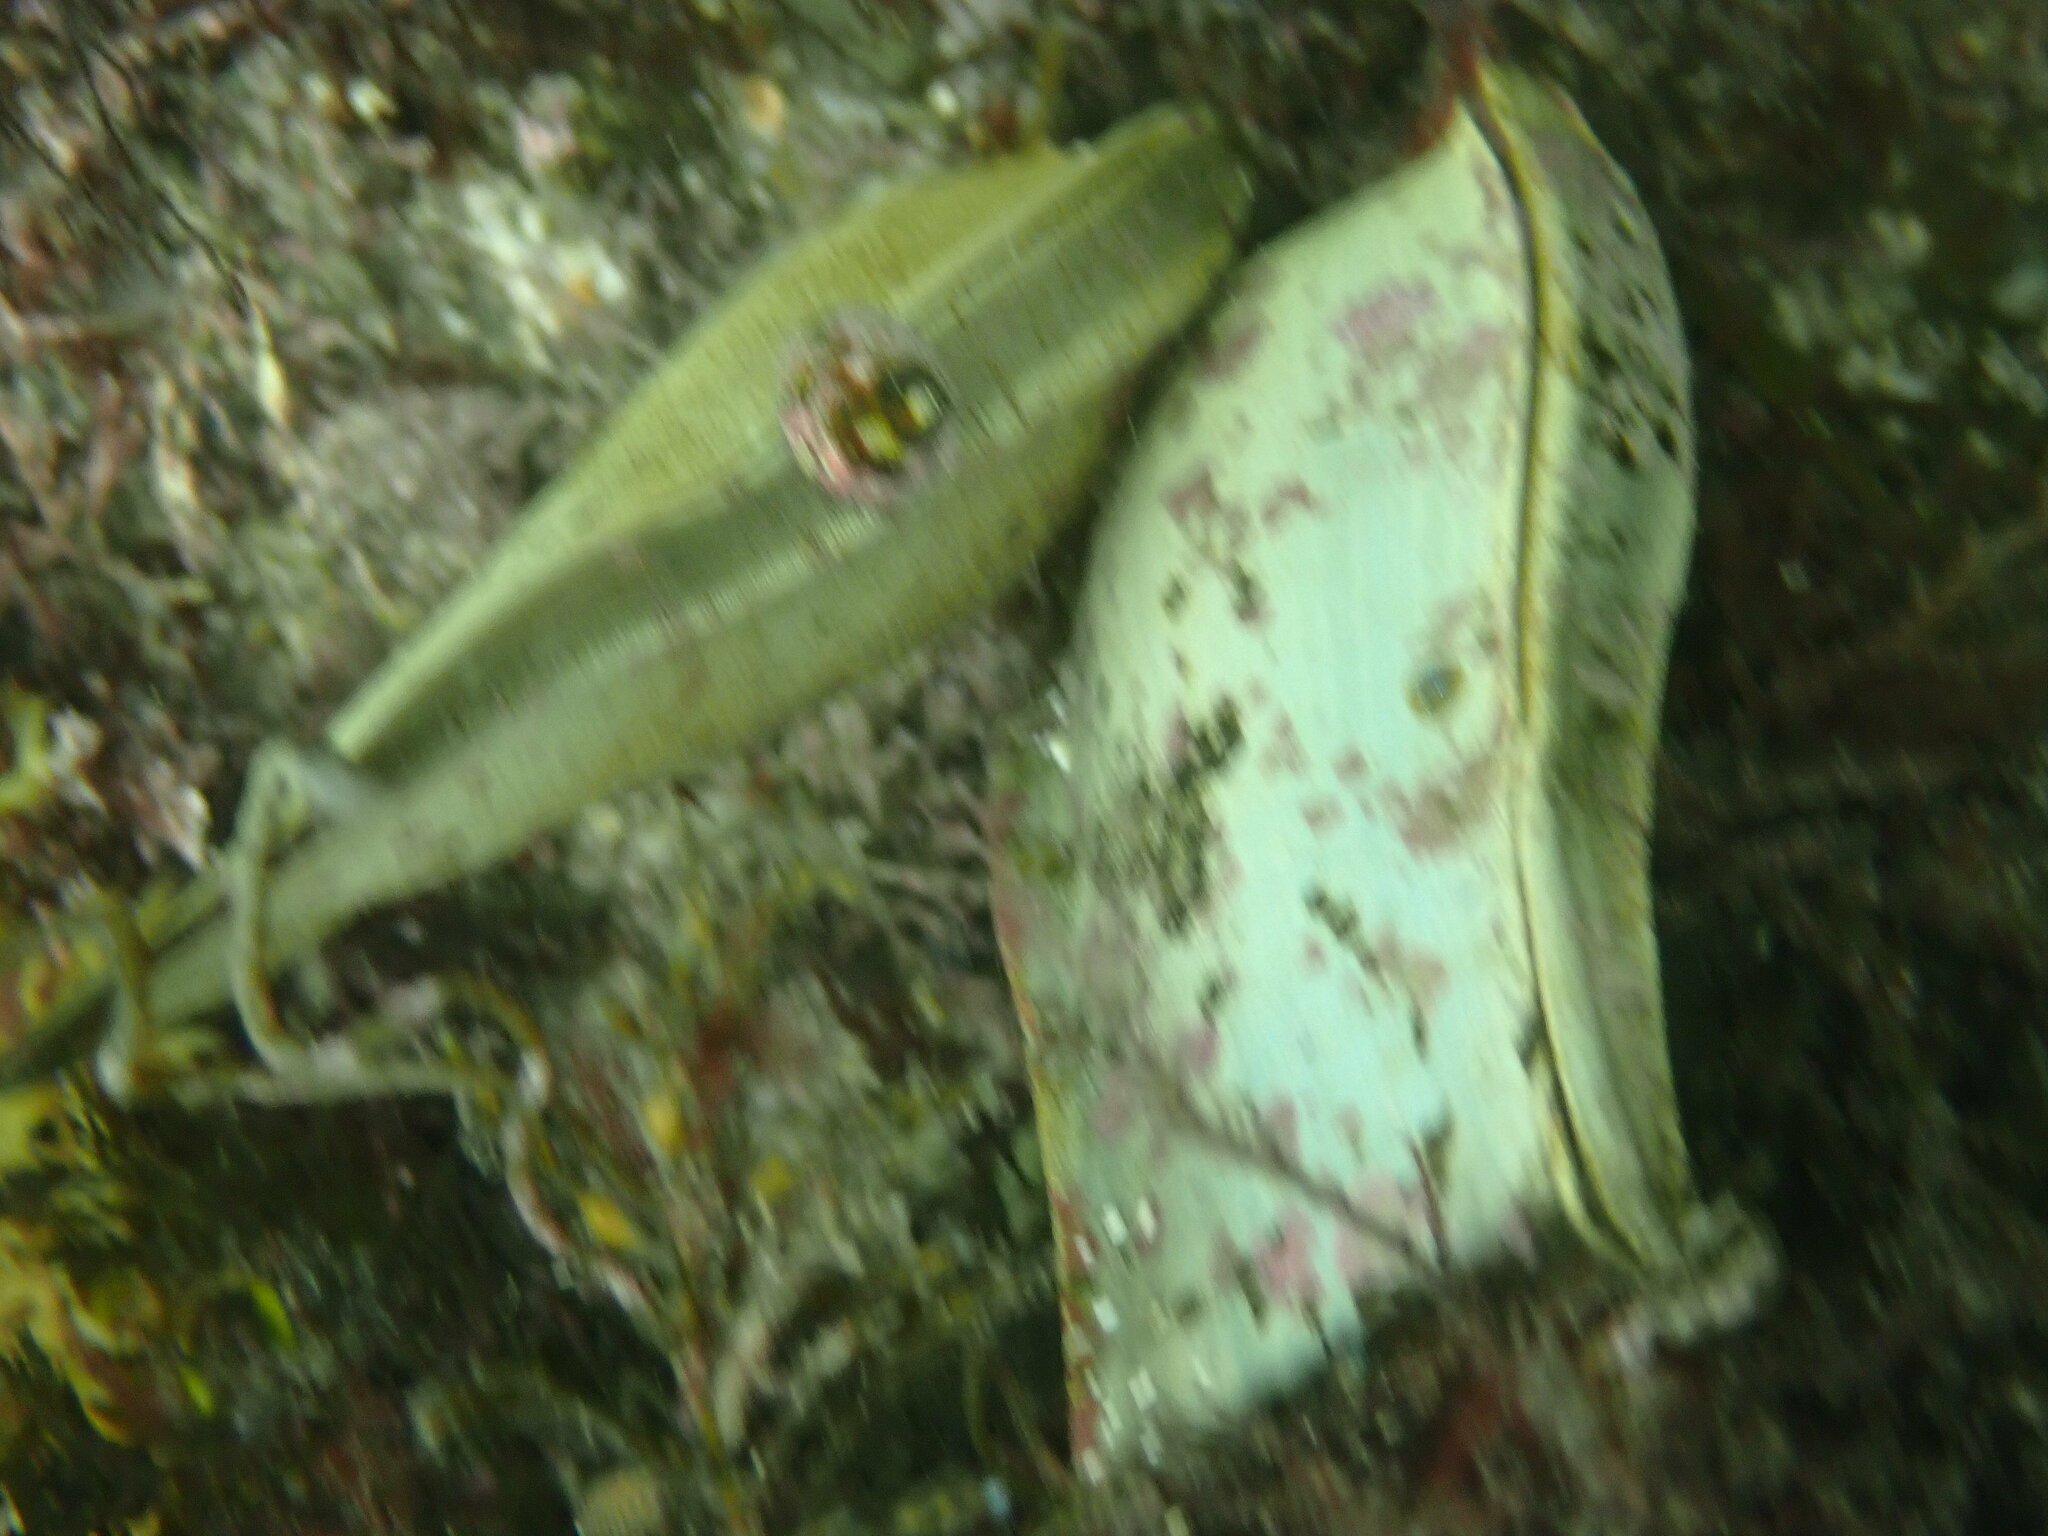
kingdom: Animalia
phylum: Chordata
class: Elasmobranchii
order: Carcharhiniformes
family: Scyliorhinidae
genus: Scyliorhinus
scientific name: Scyliorhinus stellaris
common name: Nursehound
